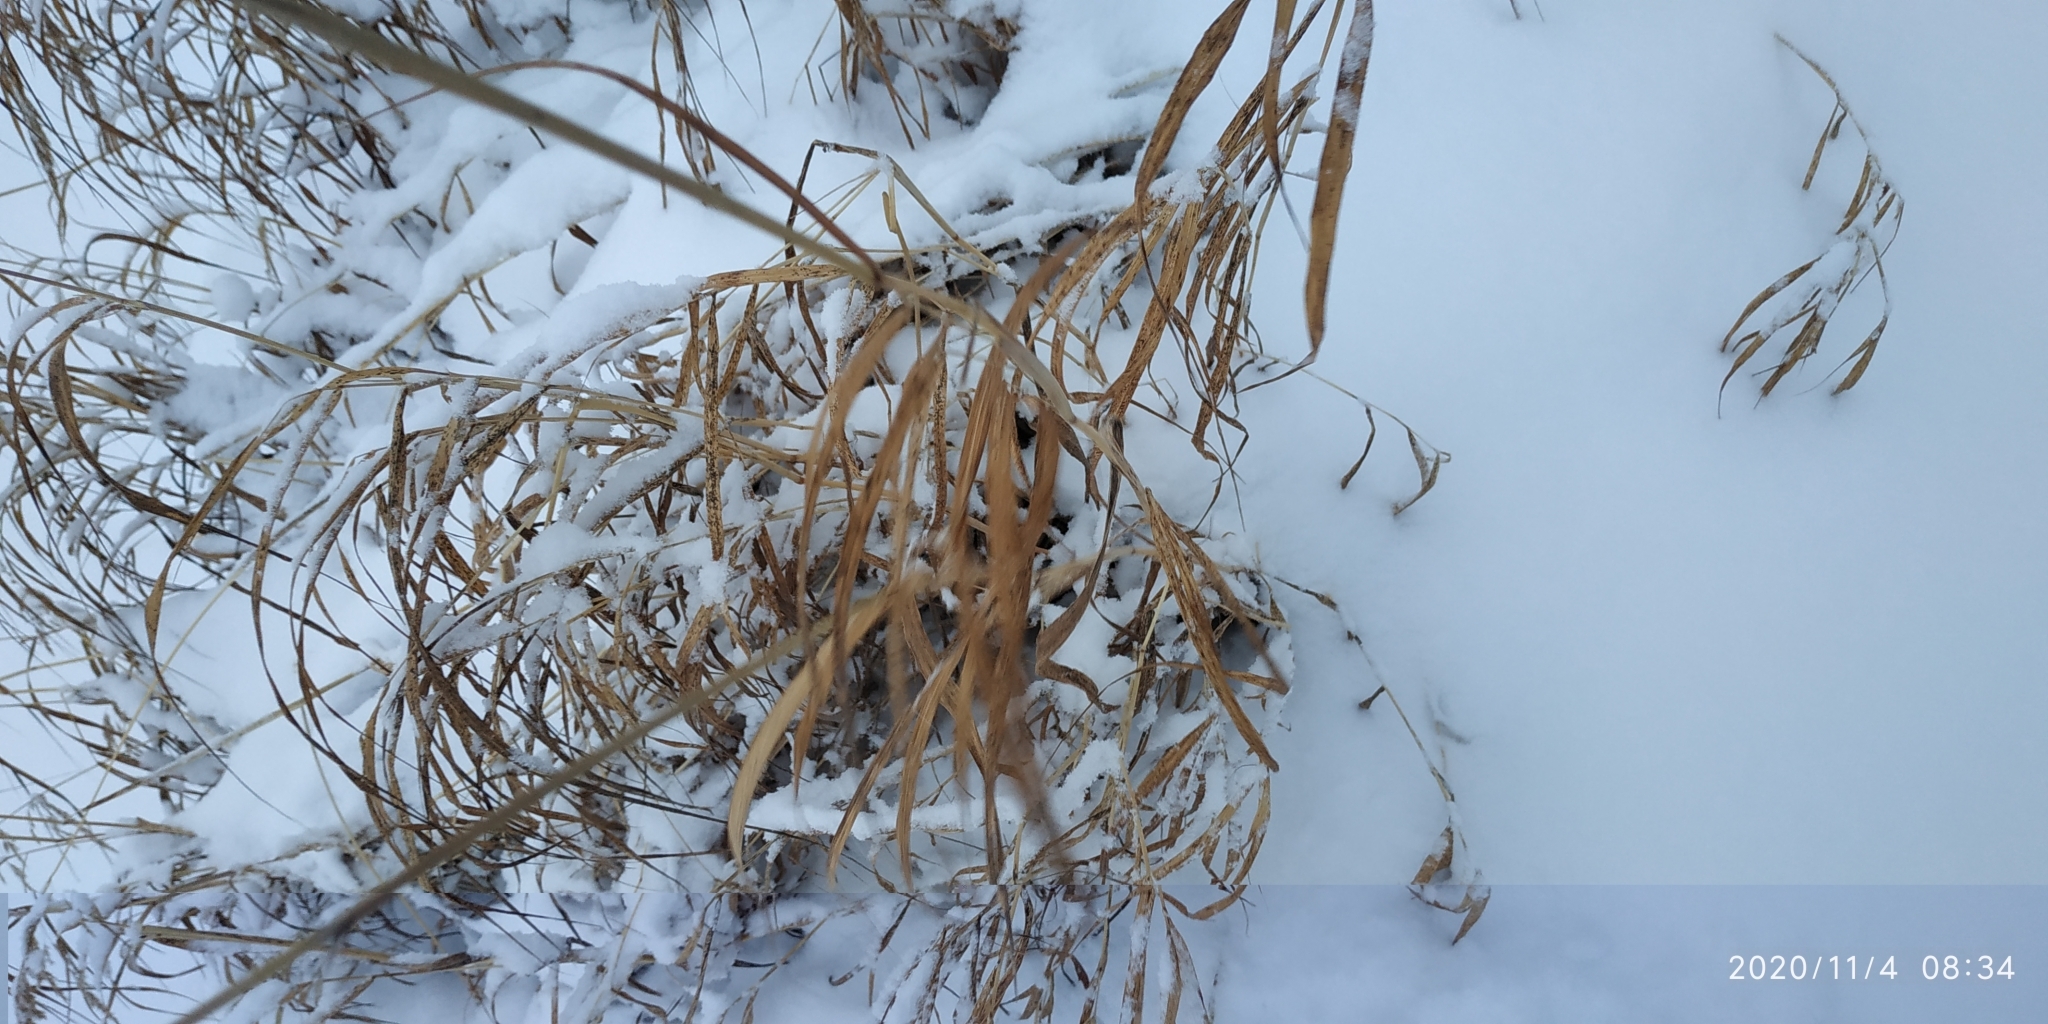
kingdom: Plantae
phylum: Tracheophyta
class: Liliopsida
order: Poales
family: Poaceae
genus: Calamagrostis
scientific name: Calamagrostis purpurea
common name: Scandinavian small-reed
